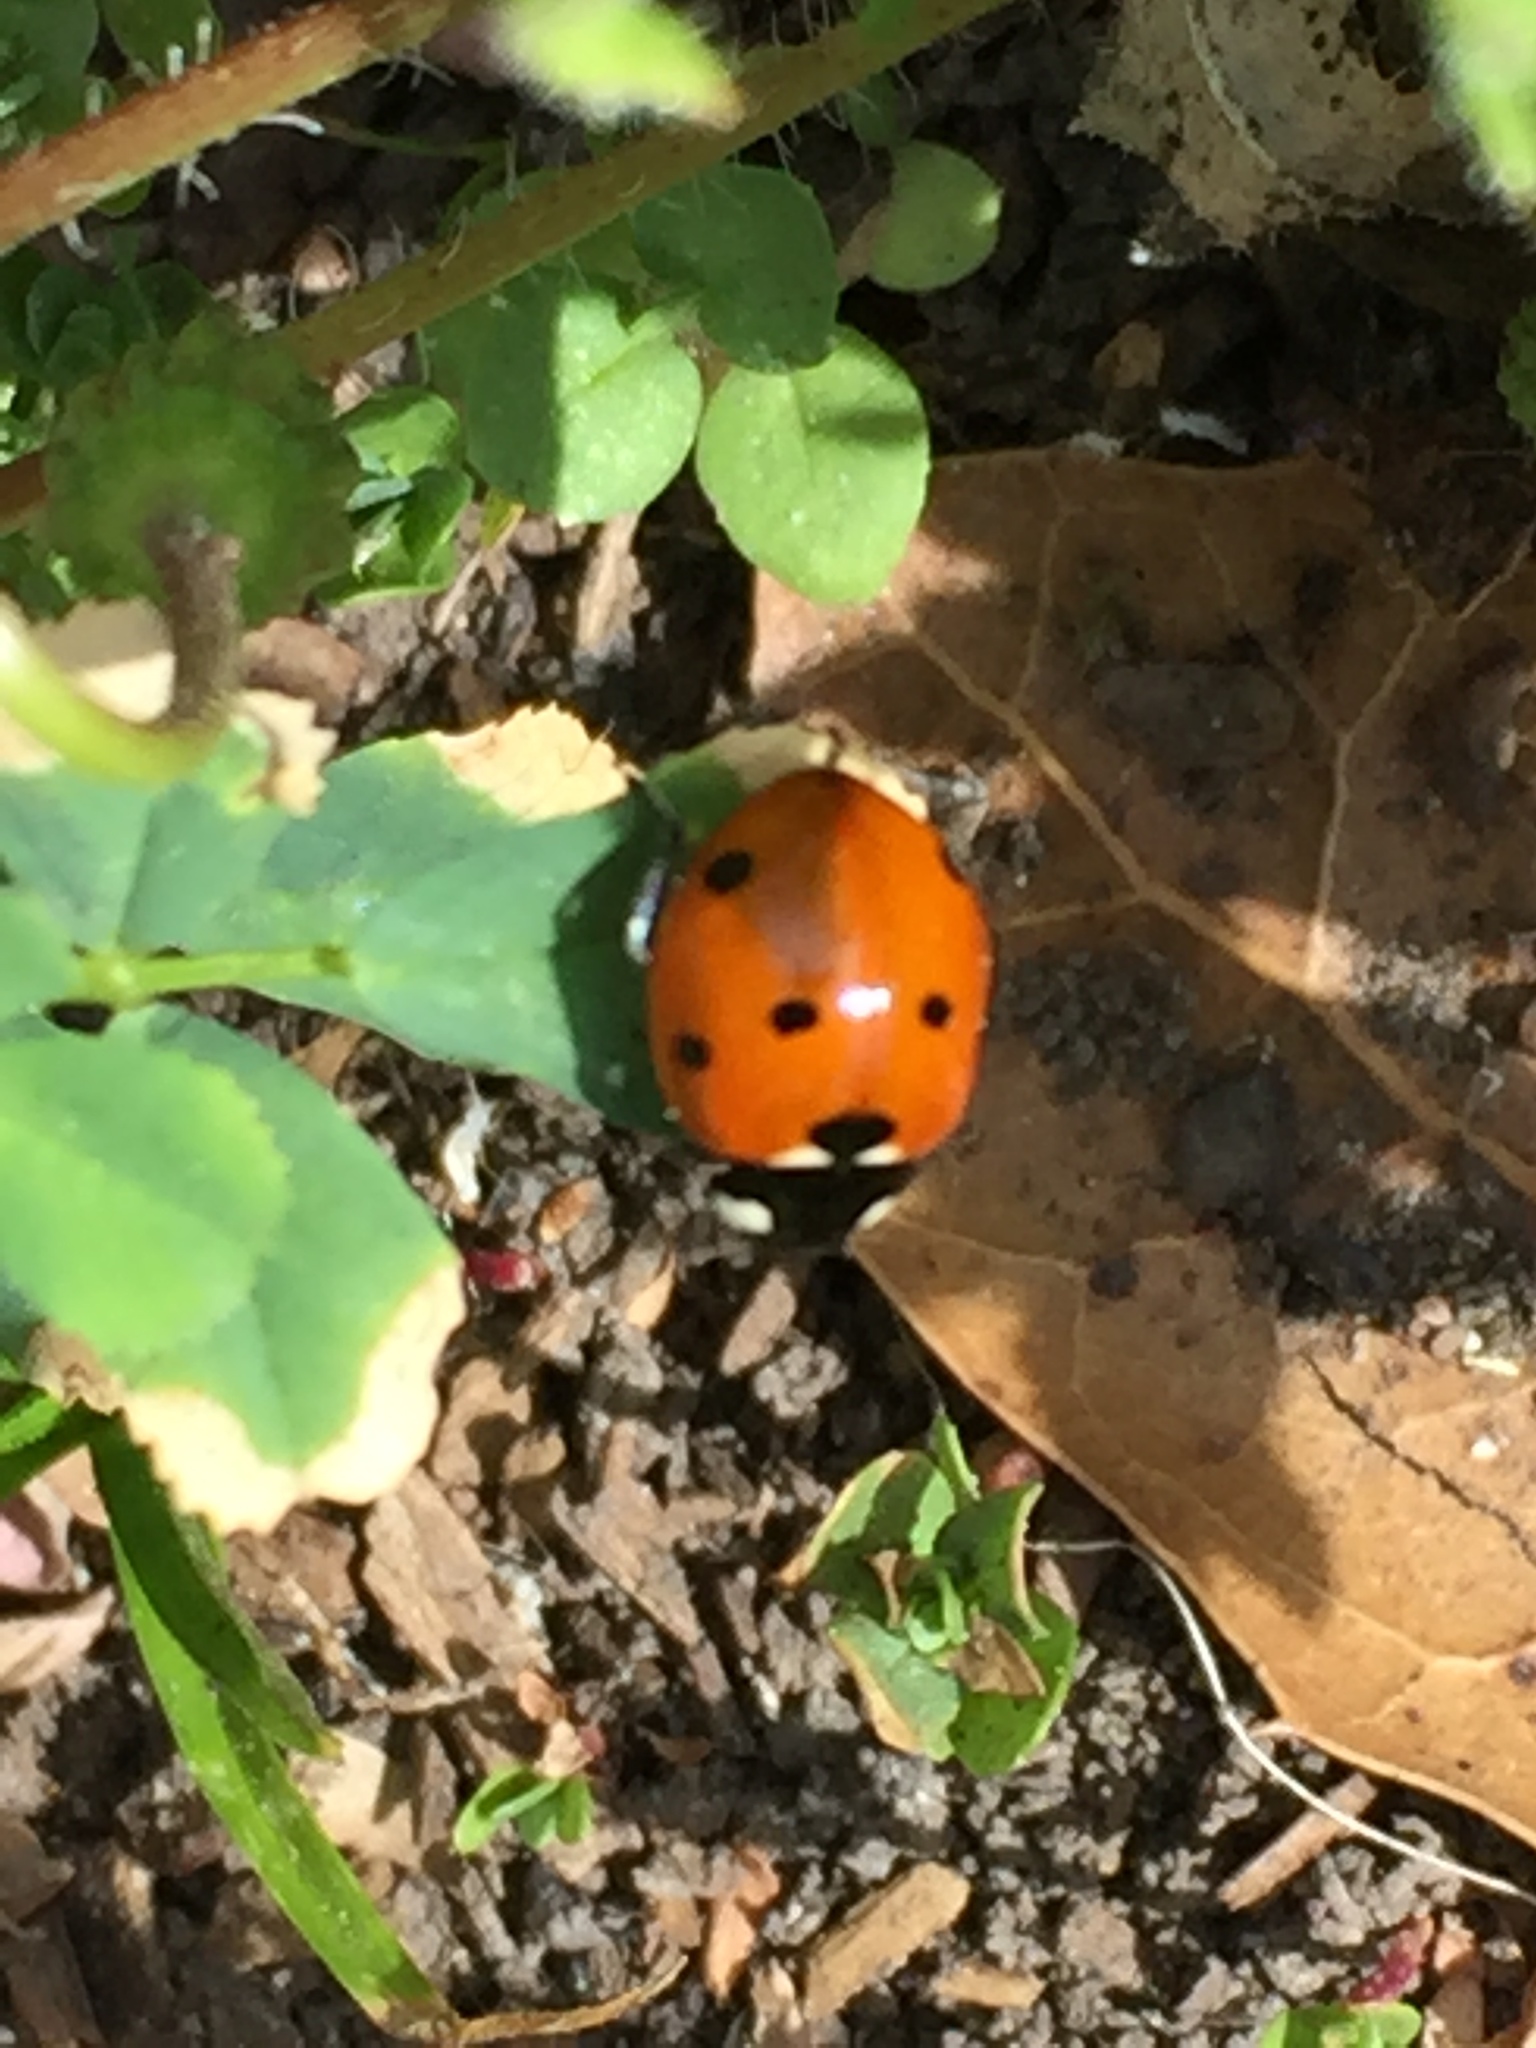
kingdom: Animalia
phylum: Arthropoda
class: Insecta
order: Coleoptera
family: Coccinellidae
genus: Coccinella
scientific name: Coccinella septempunctata
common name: Sevenspotted lady beetle
